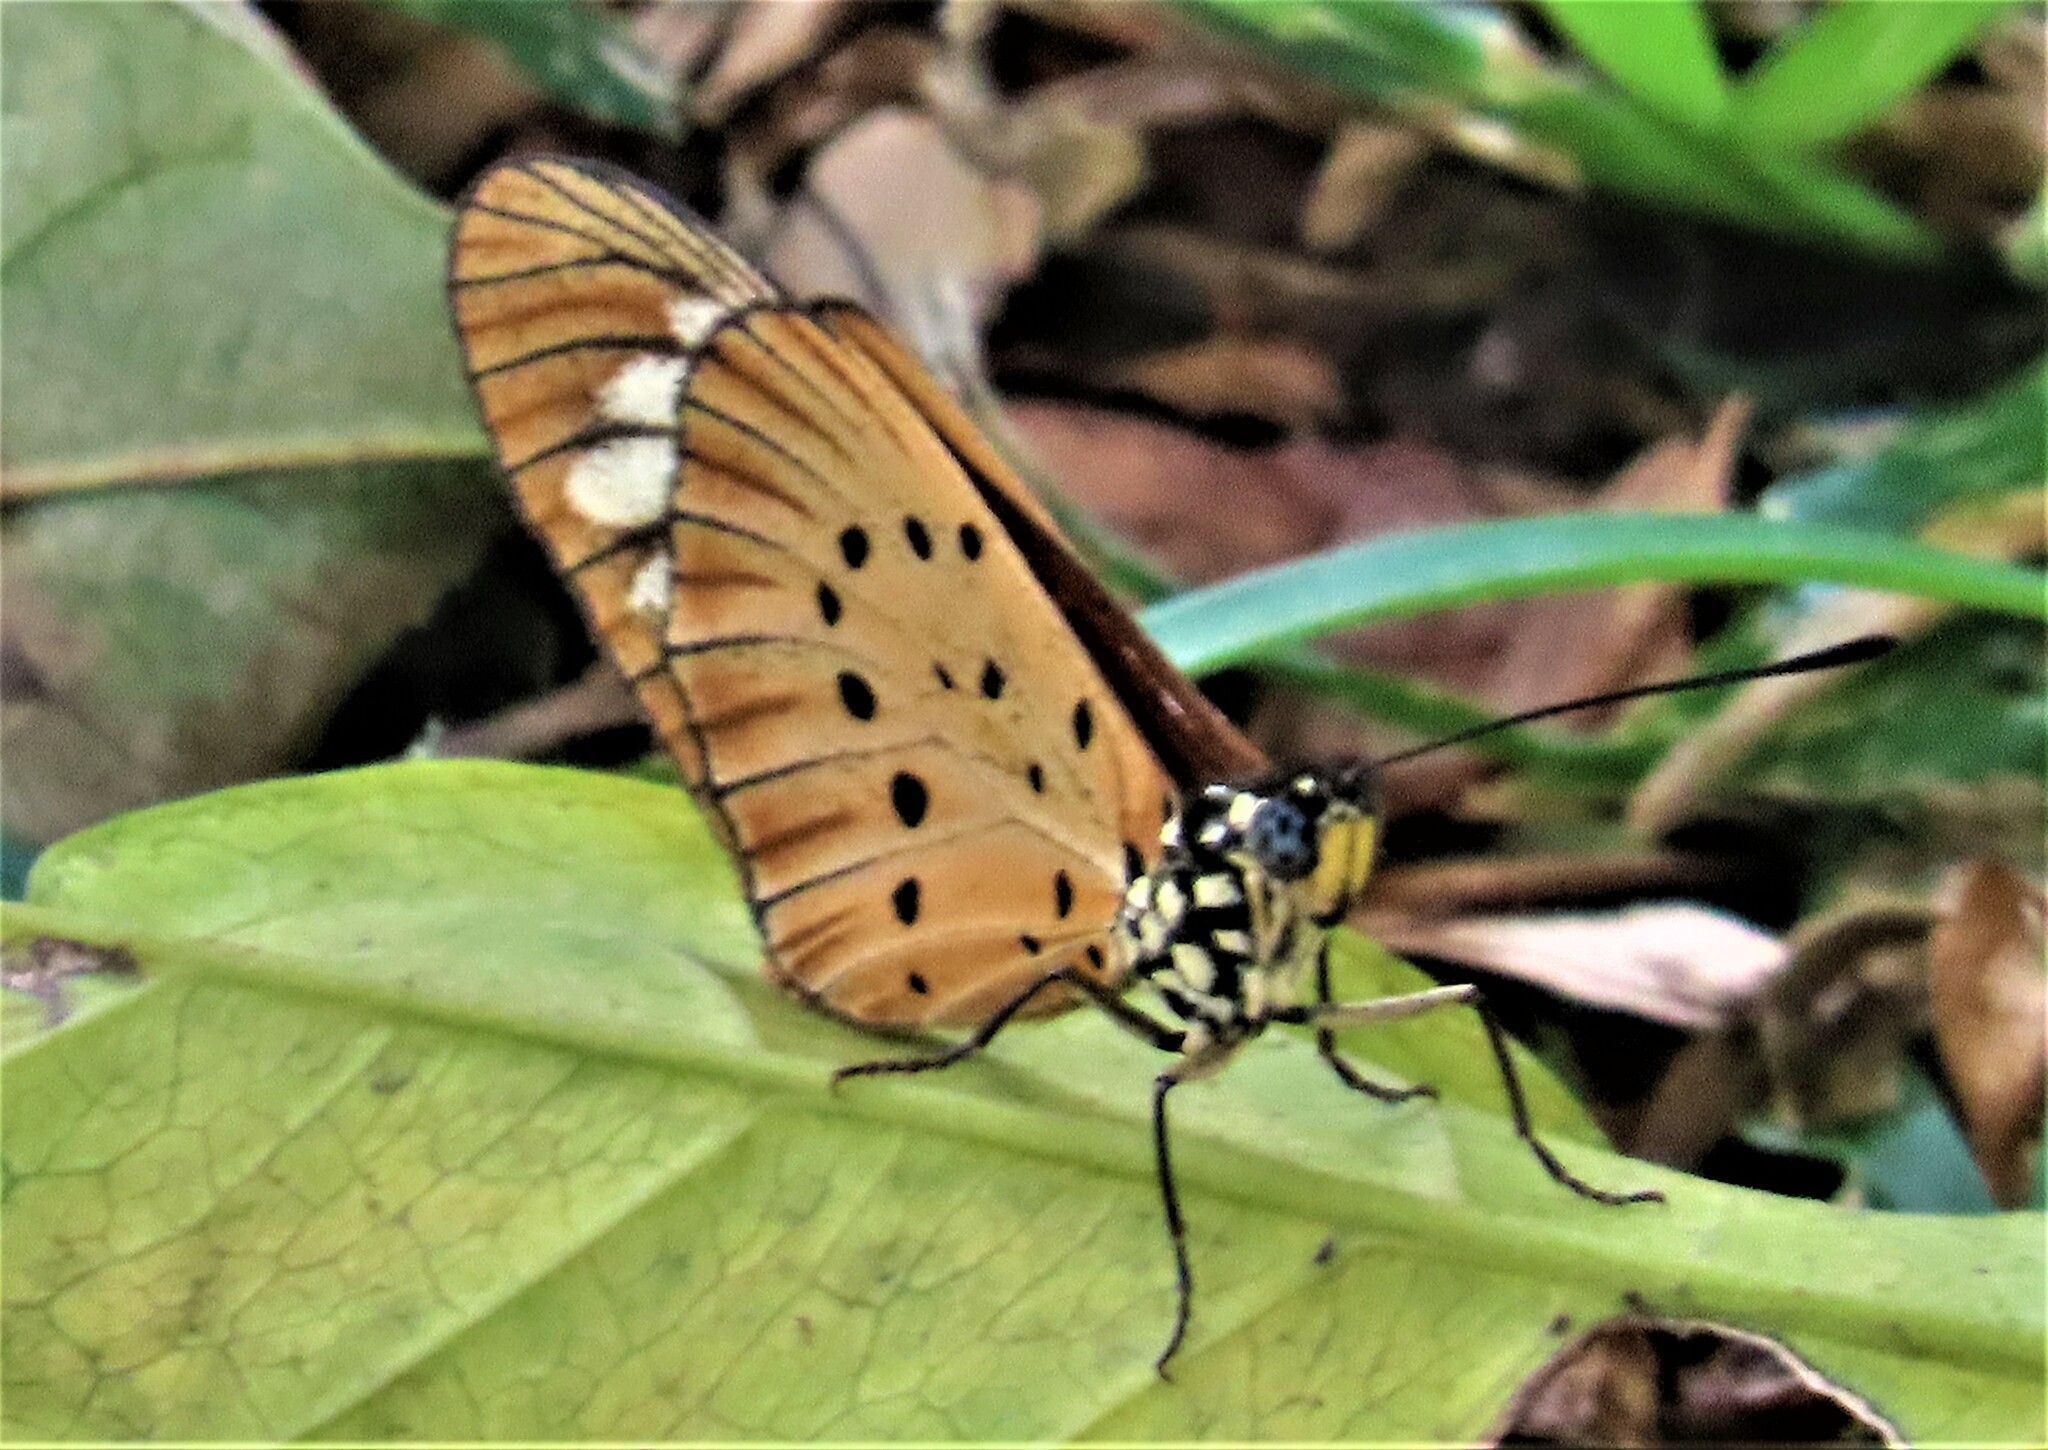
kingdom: Animalia
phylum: Arthropoda
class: Insecta
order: Lepidoptera
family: Nymphalidae
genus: Acraea
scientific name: Acraea Telchinia encedon
